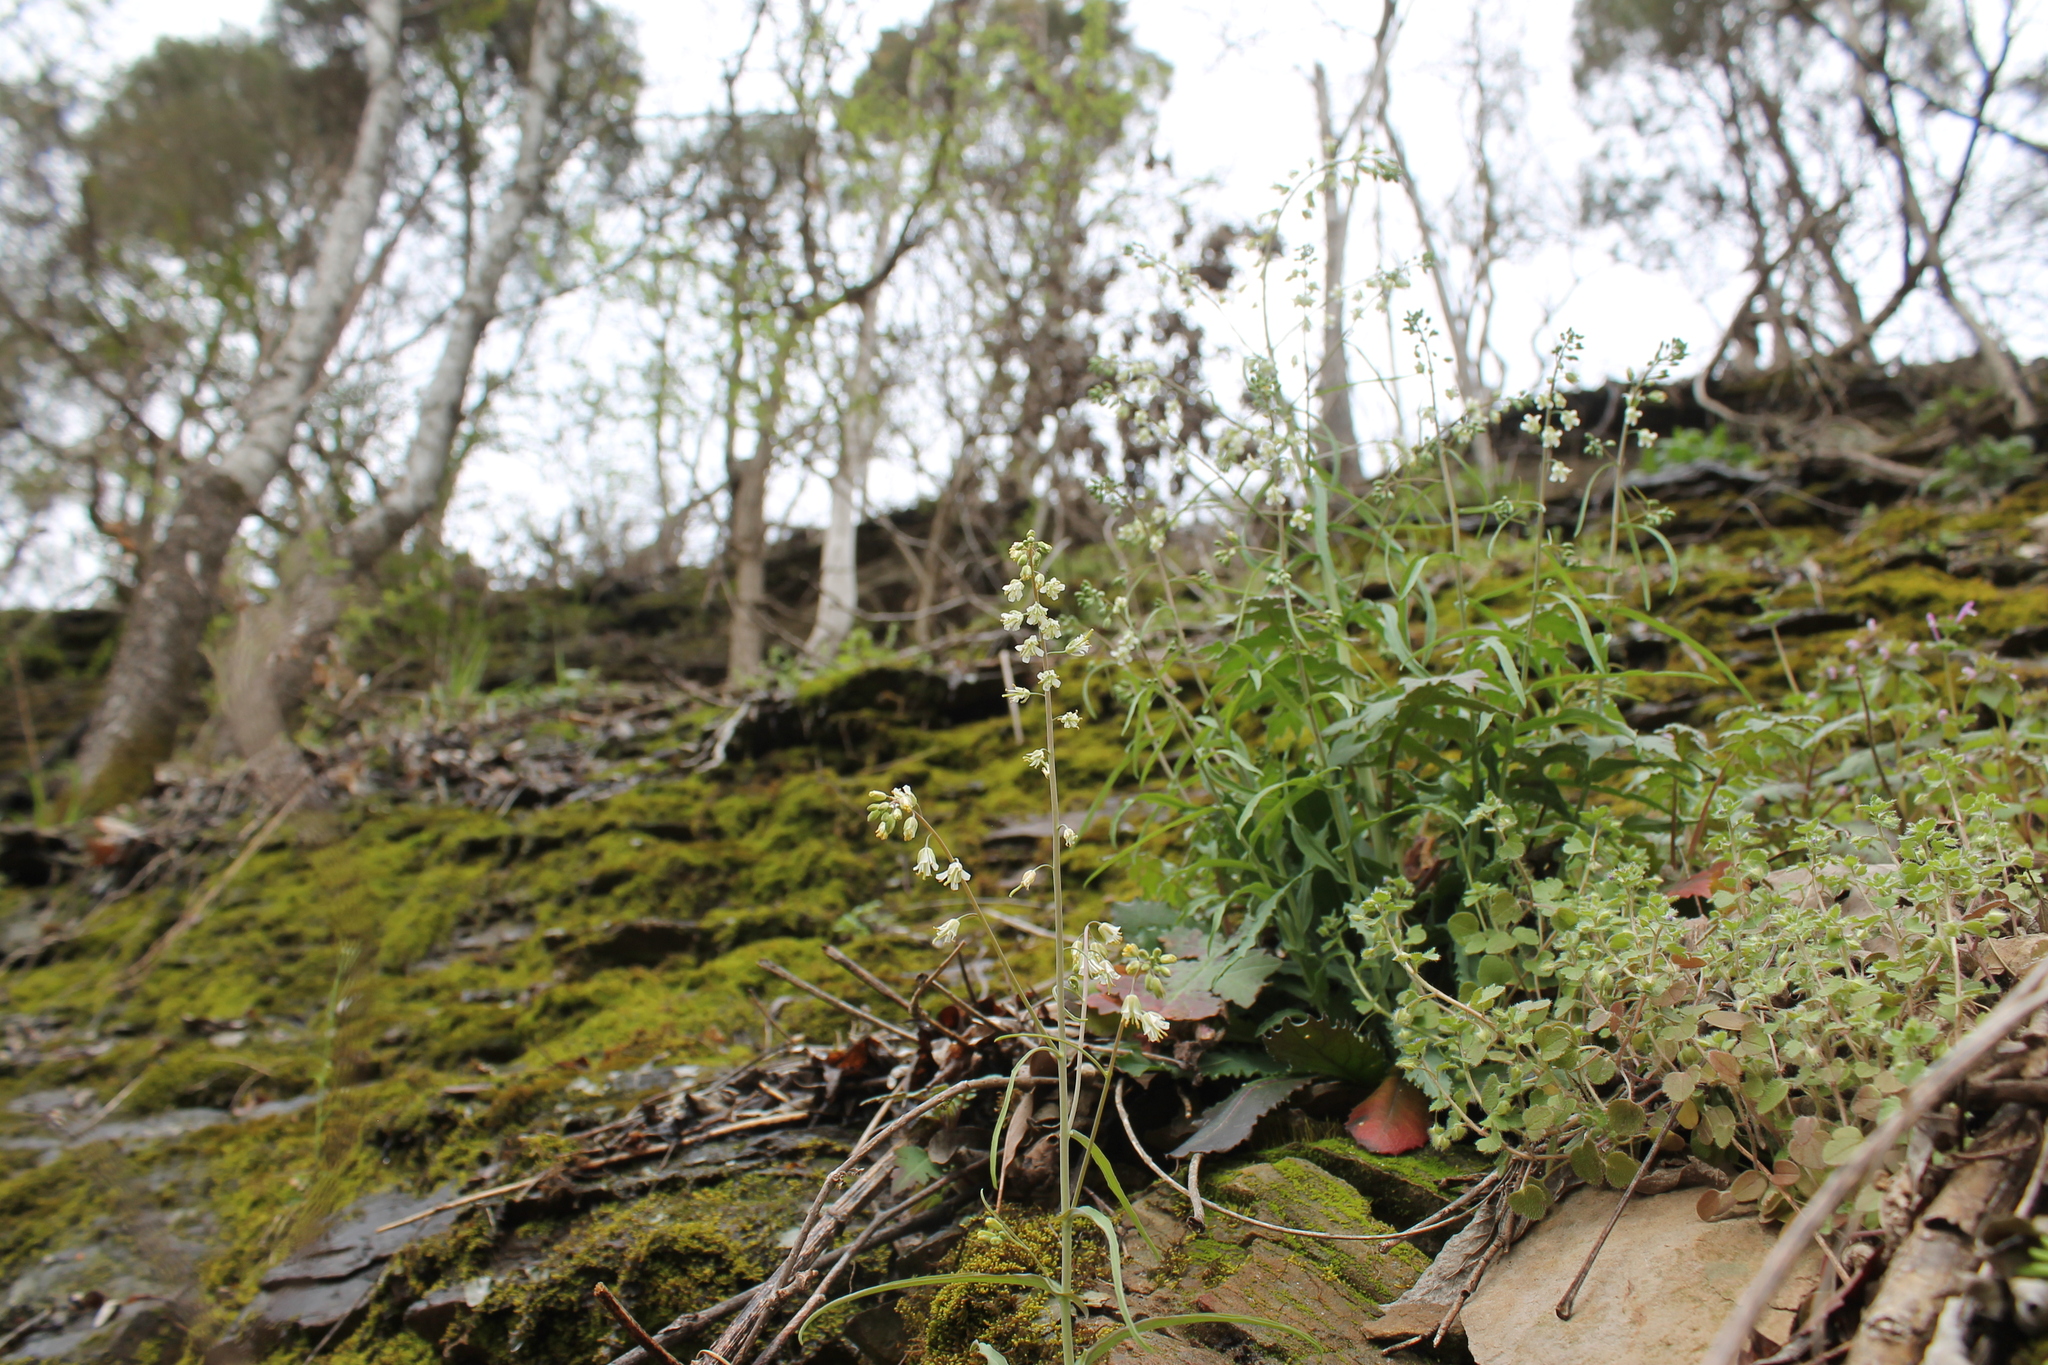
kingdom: Plantae
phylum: Tracheophyta
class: Magnoliopsida
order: Brassicales
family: Brassicaceae
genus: Borodinia
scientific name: Borodinia laevigata
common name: Smooth rockcress
